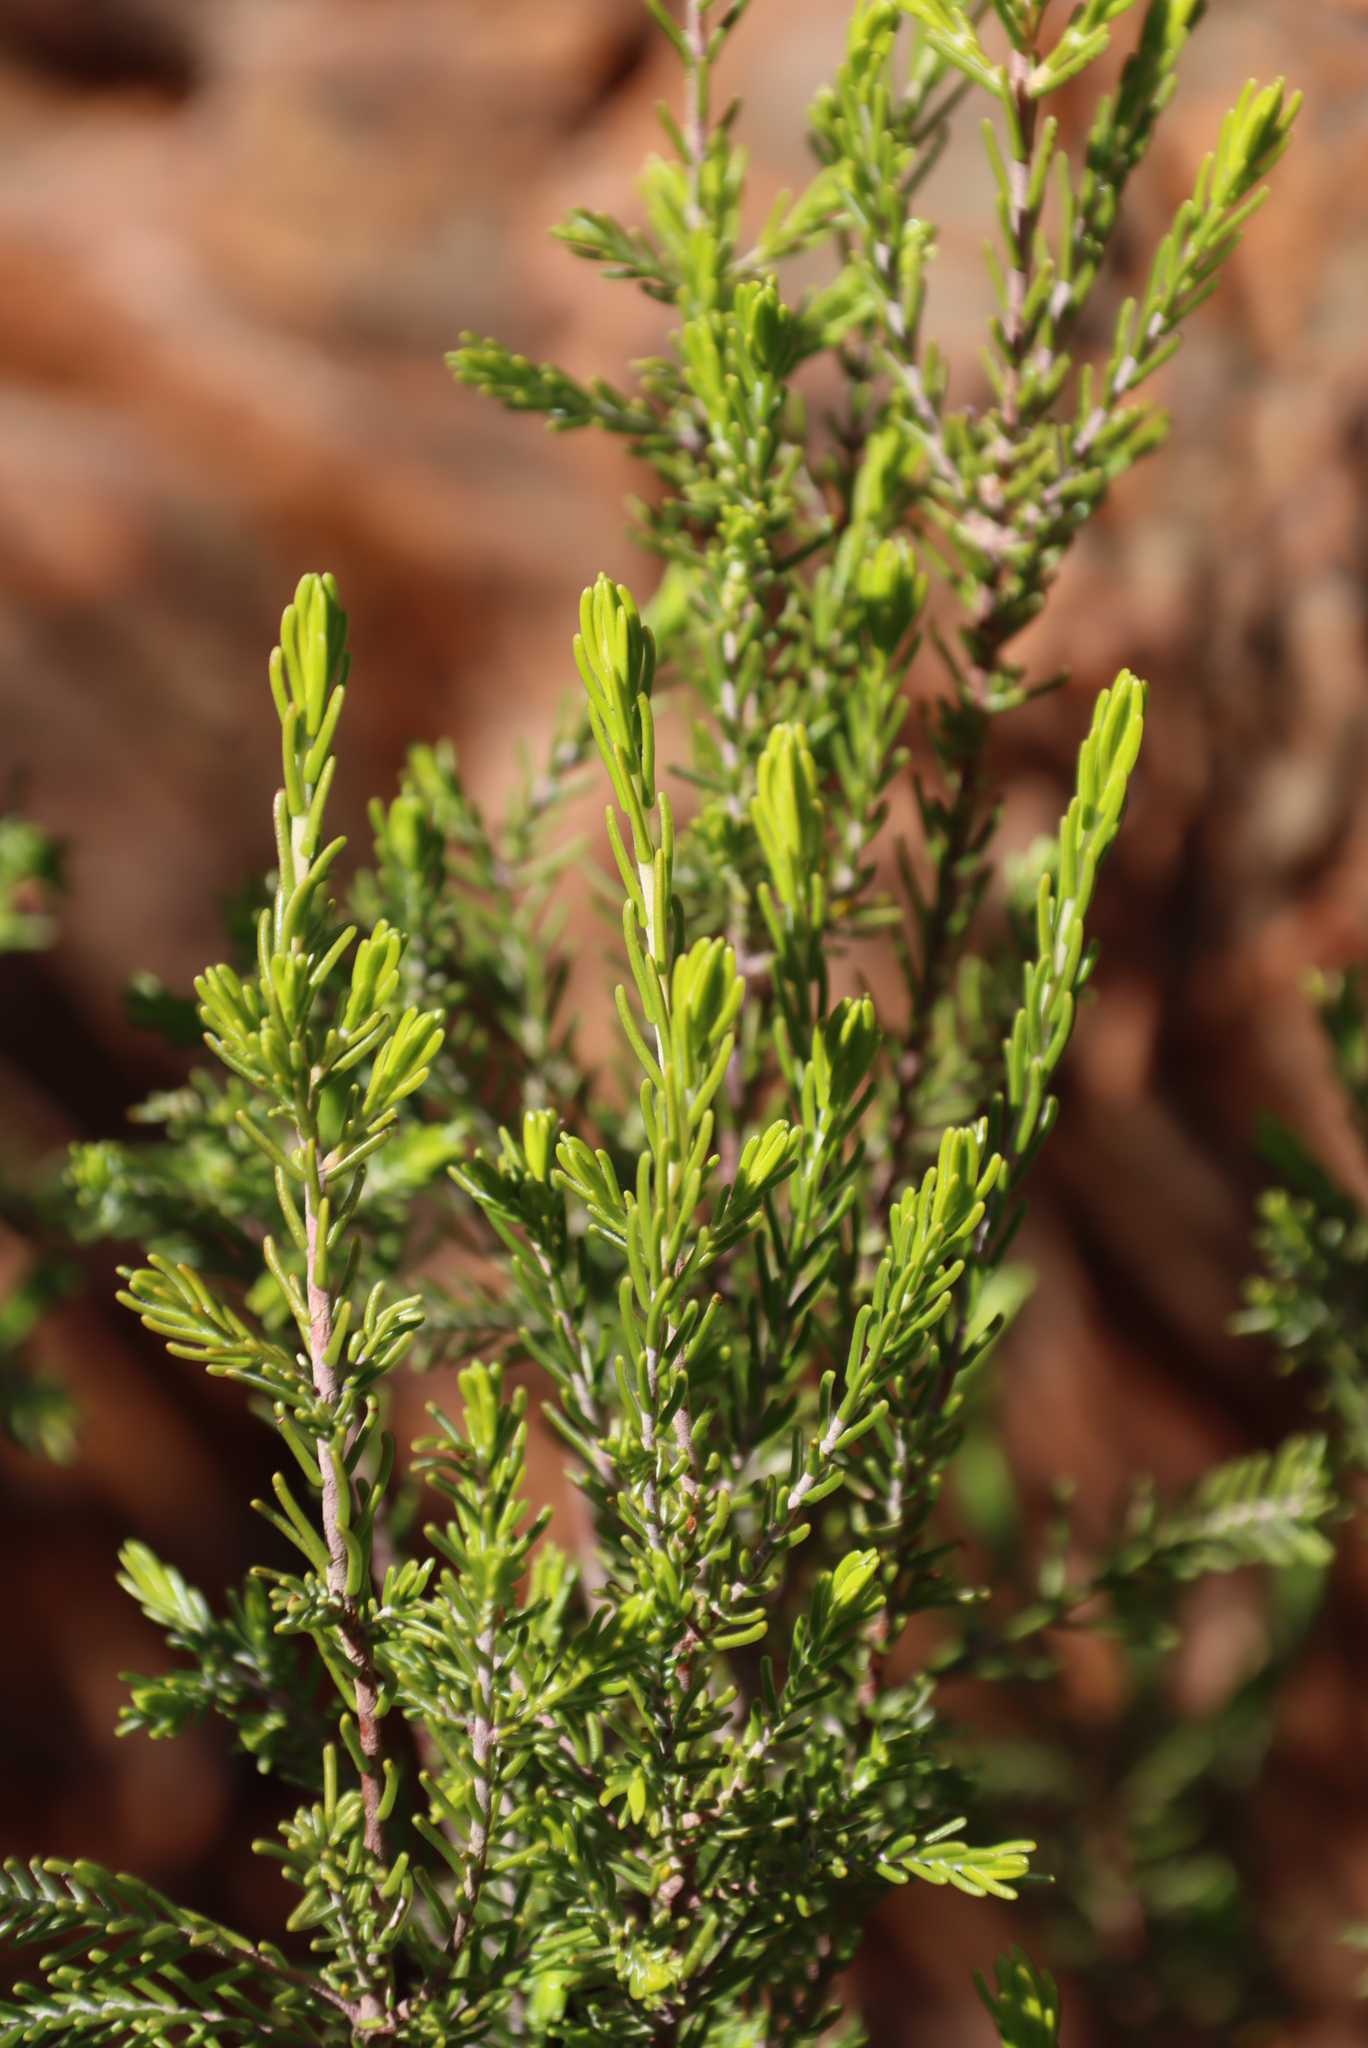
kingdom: Plantae
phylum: Tracheophyta
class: Magnoliopsida
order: Malvales
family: Thymelaeaceae
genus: Passerina
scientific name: Passerina obtusifolia
